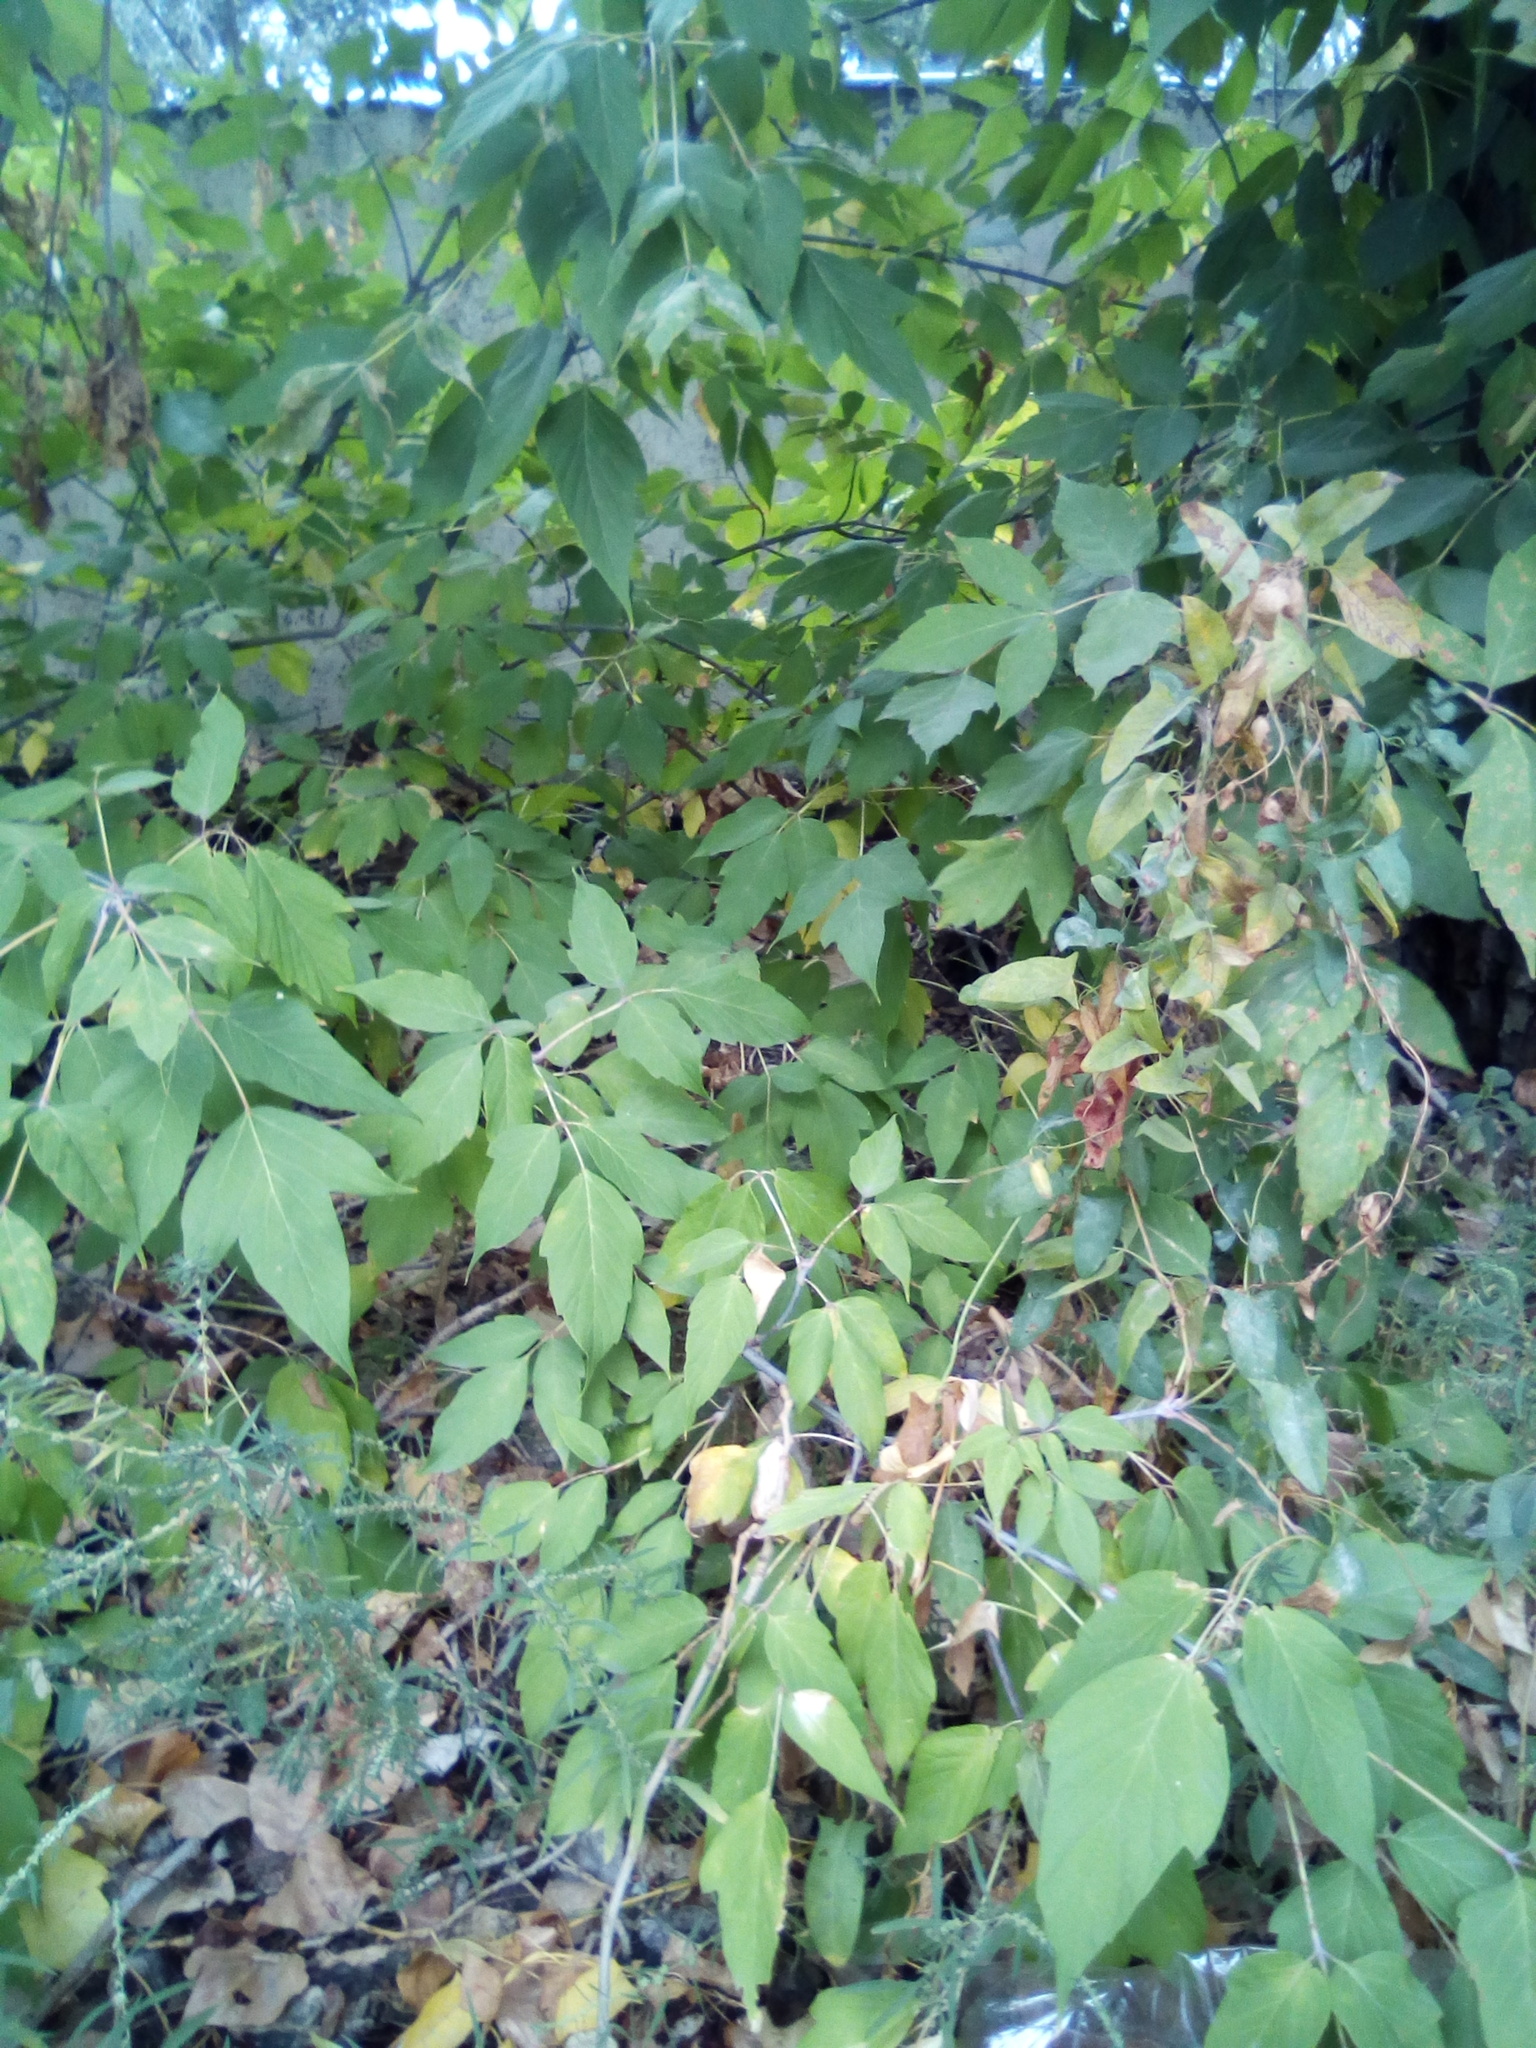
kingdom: Plantae
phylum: Tracheophyta
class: Magnoliopsida
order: Sapindales
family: Sapindaceae
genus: Acer
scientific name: Acer negundo
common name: Ashleaf maple
